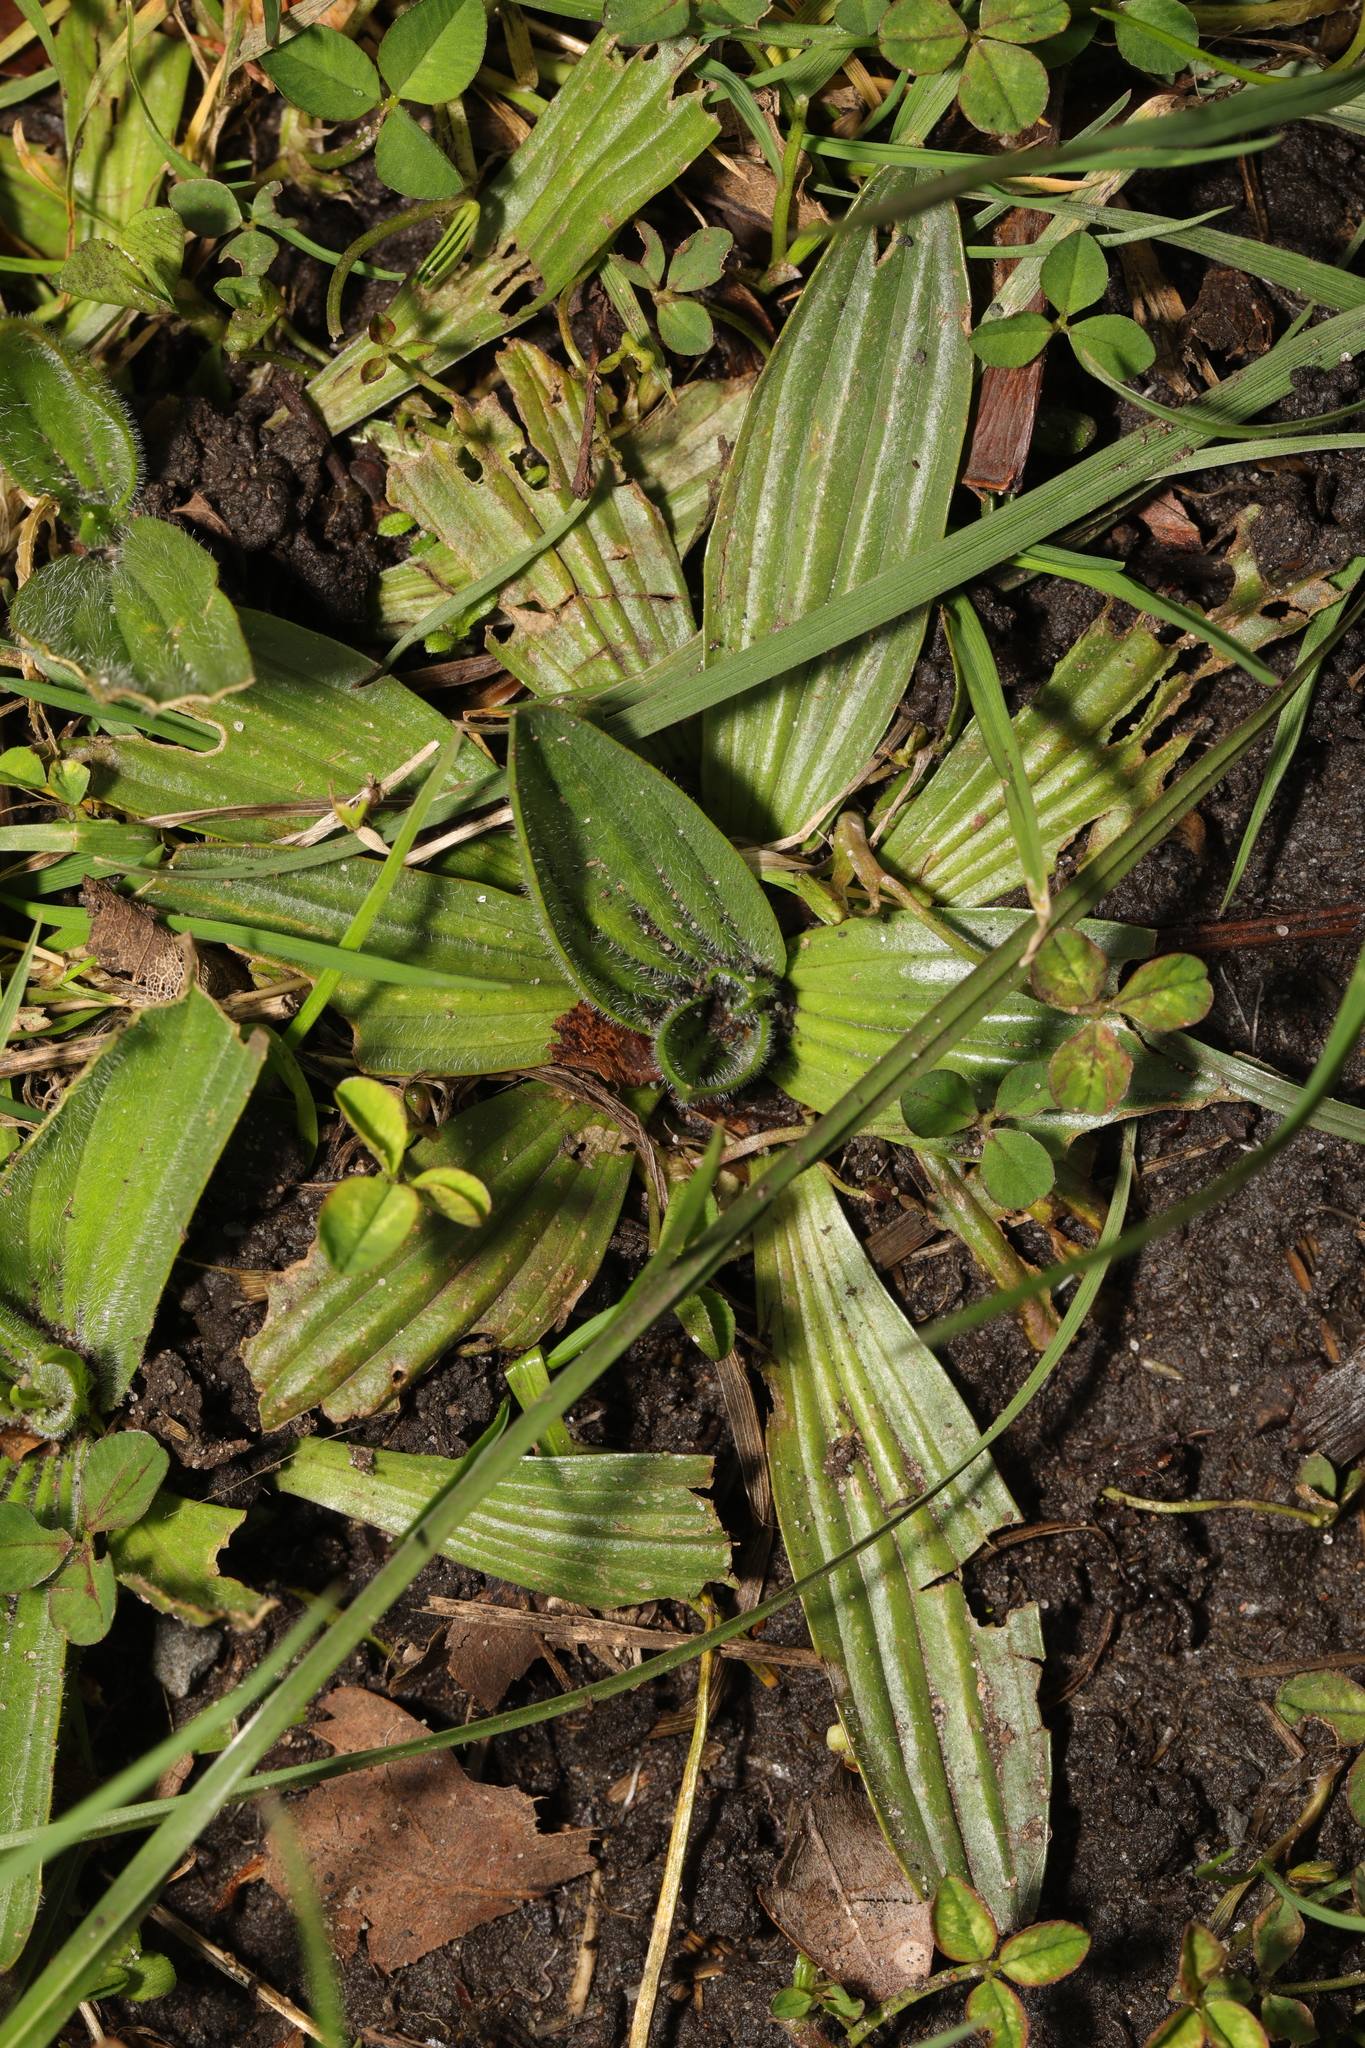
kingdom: Plantae
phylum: Tracheophyta
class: Magnoliopsida
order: Lamiales
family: Plantaginaceae
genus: Plantago
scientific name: Plantago lanceolata
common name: Ribwort plantain
